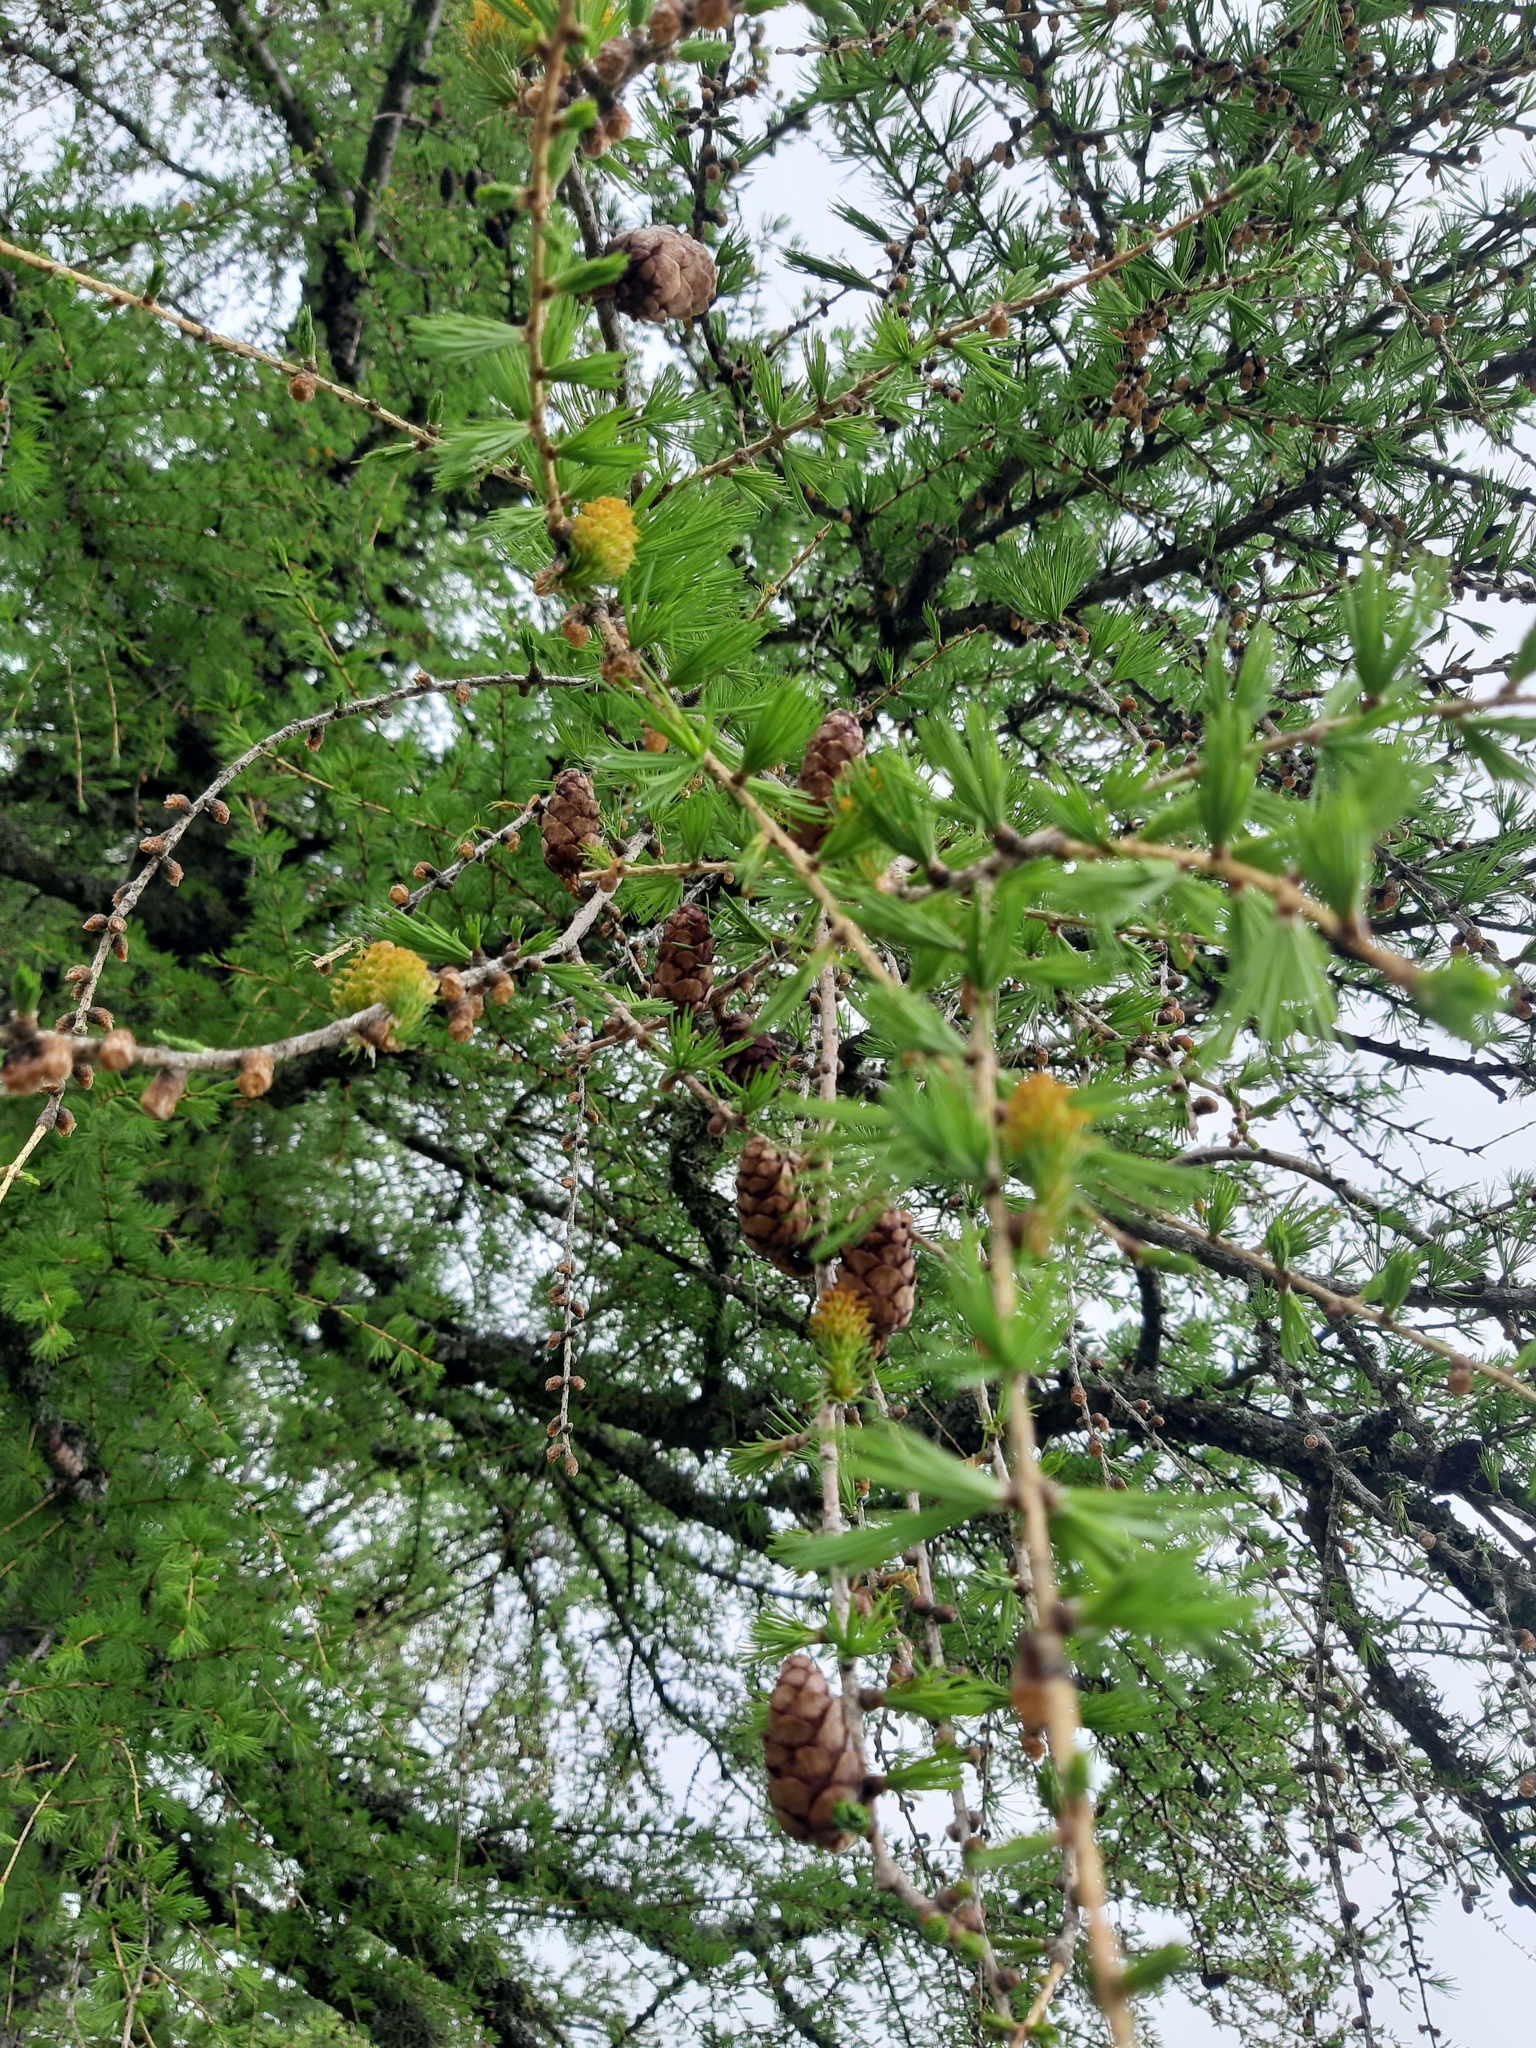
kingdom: Plantae
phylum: Tracheophyta
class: Pinopsida
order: Pinales
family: Pinaceae
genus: Larix
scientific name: Larix decidua
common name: European larch
